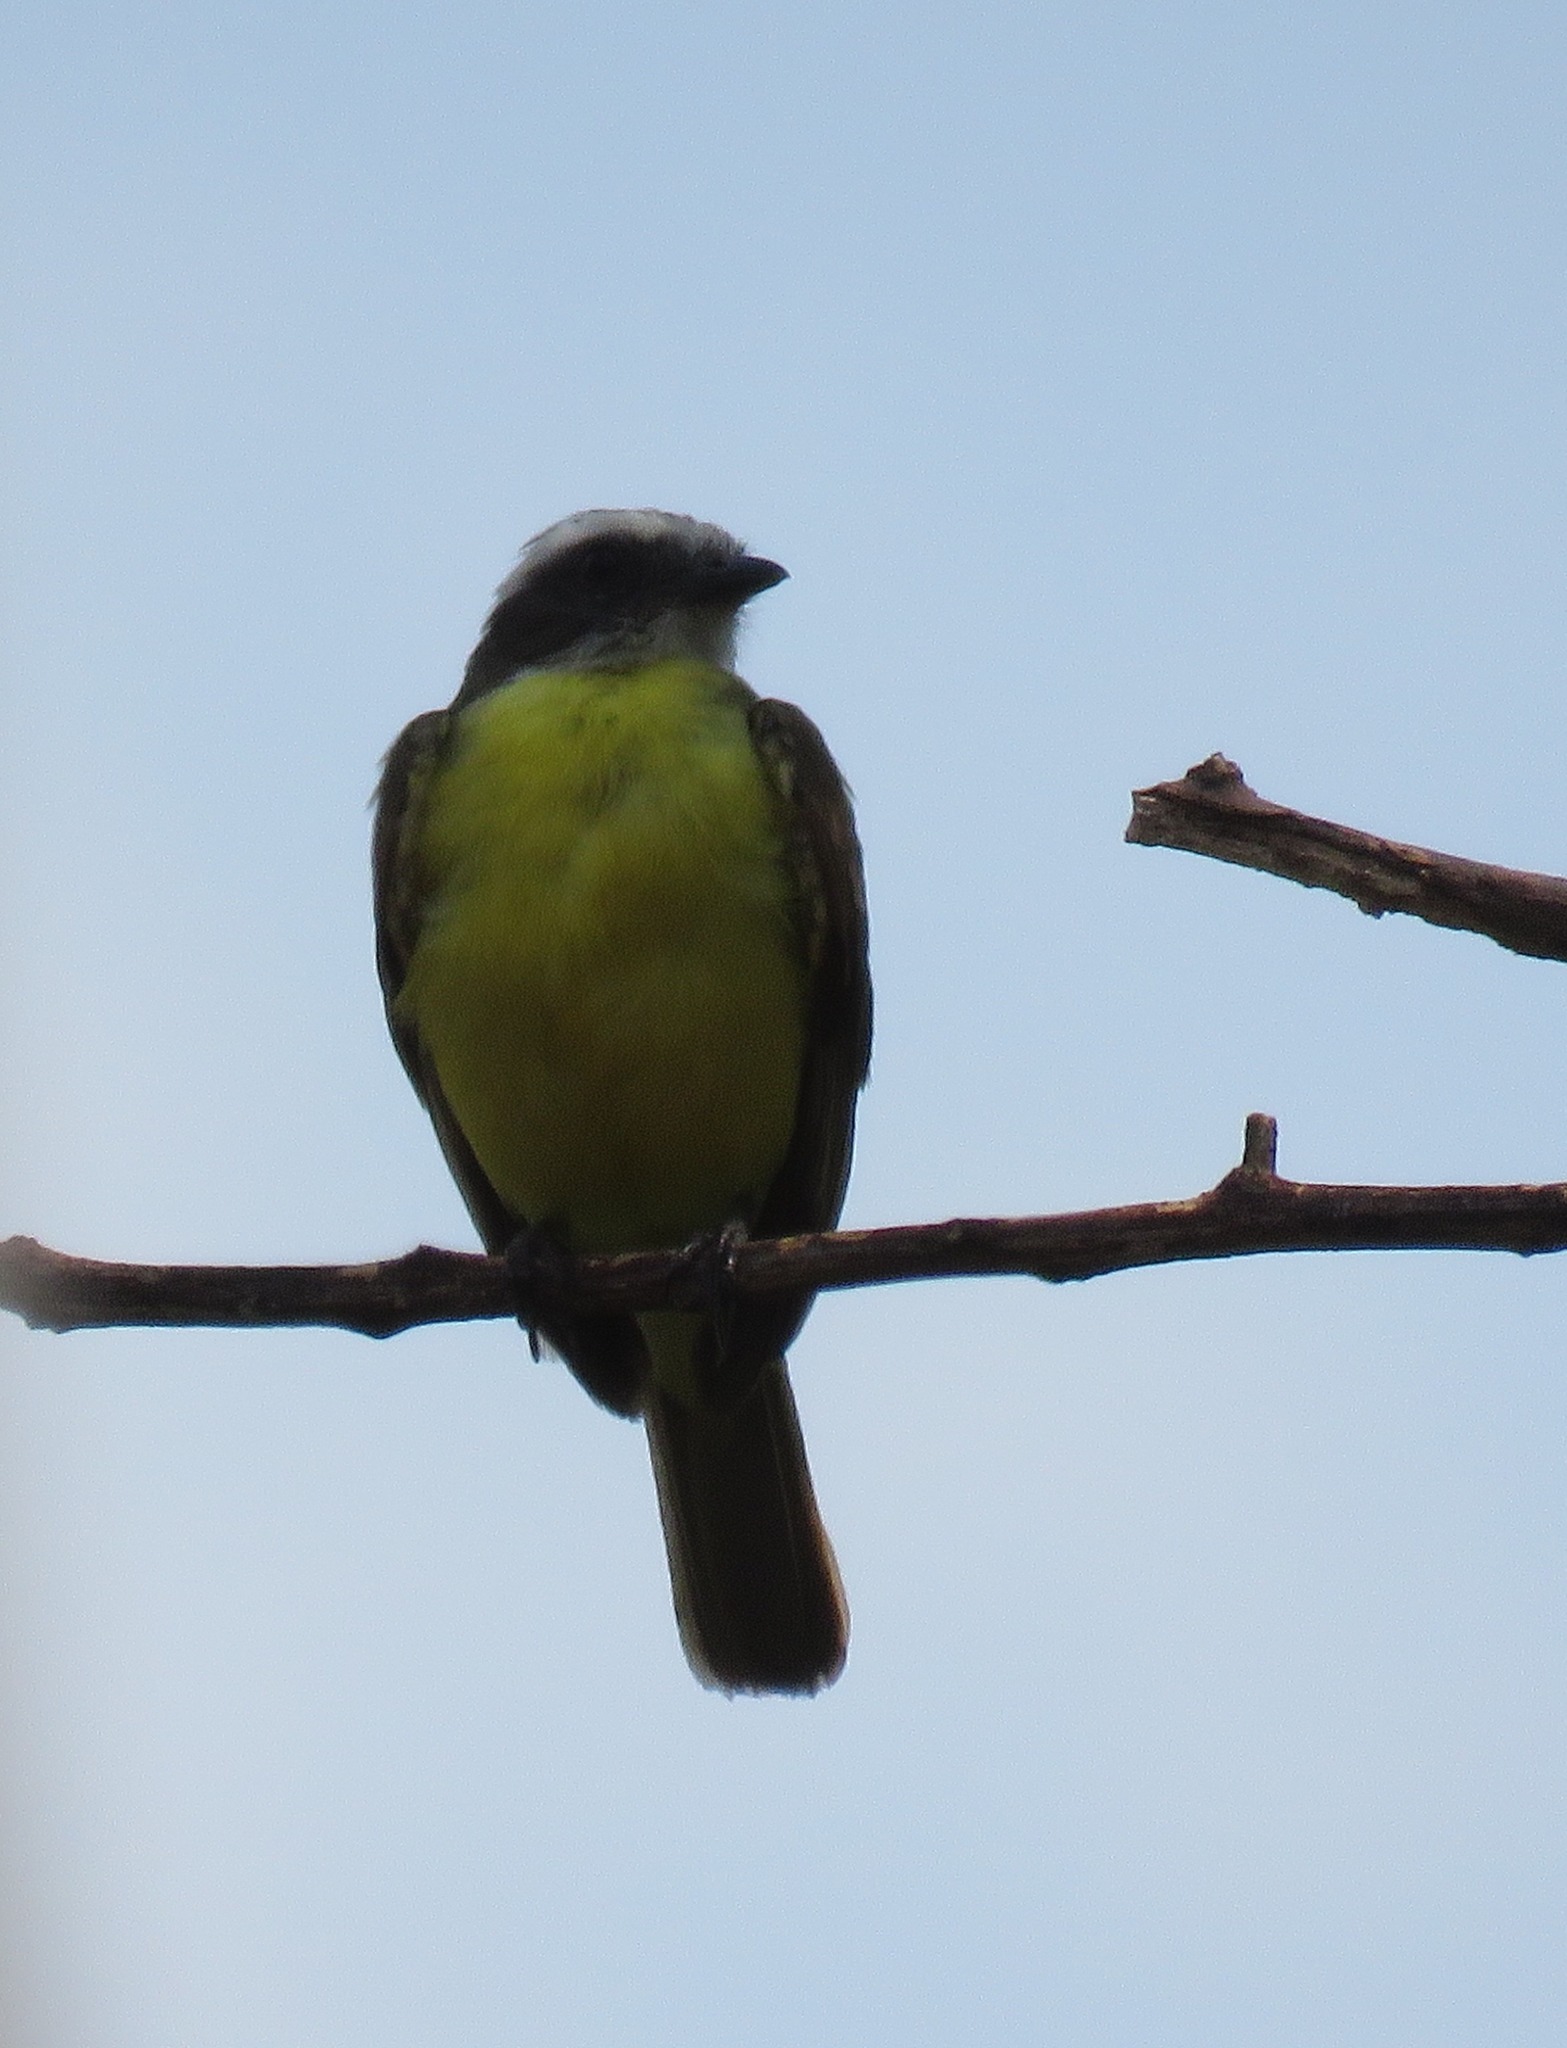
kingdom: Animalia
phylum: Chordata
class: Aves
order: Passeriformes
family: Tyrannidae
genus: Myiozetetes
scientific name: Myiozetetes similis
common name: Social flycatcher
